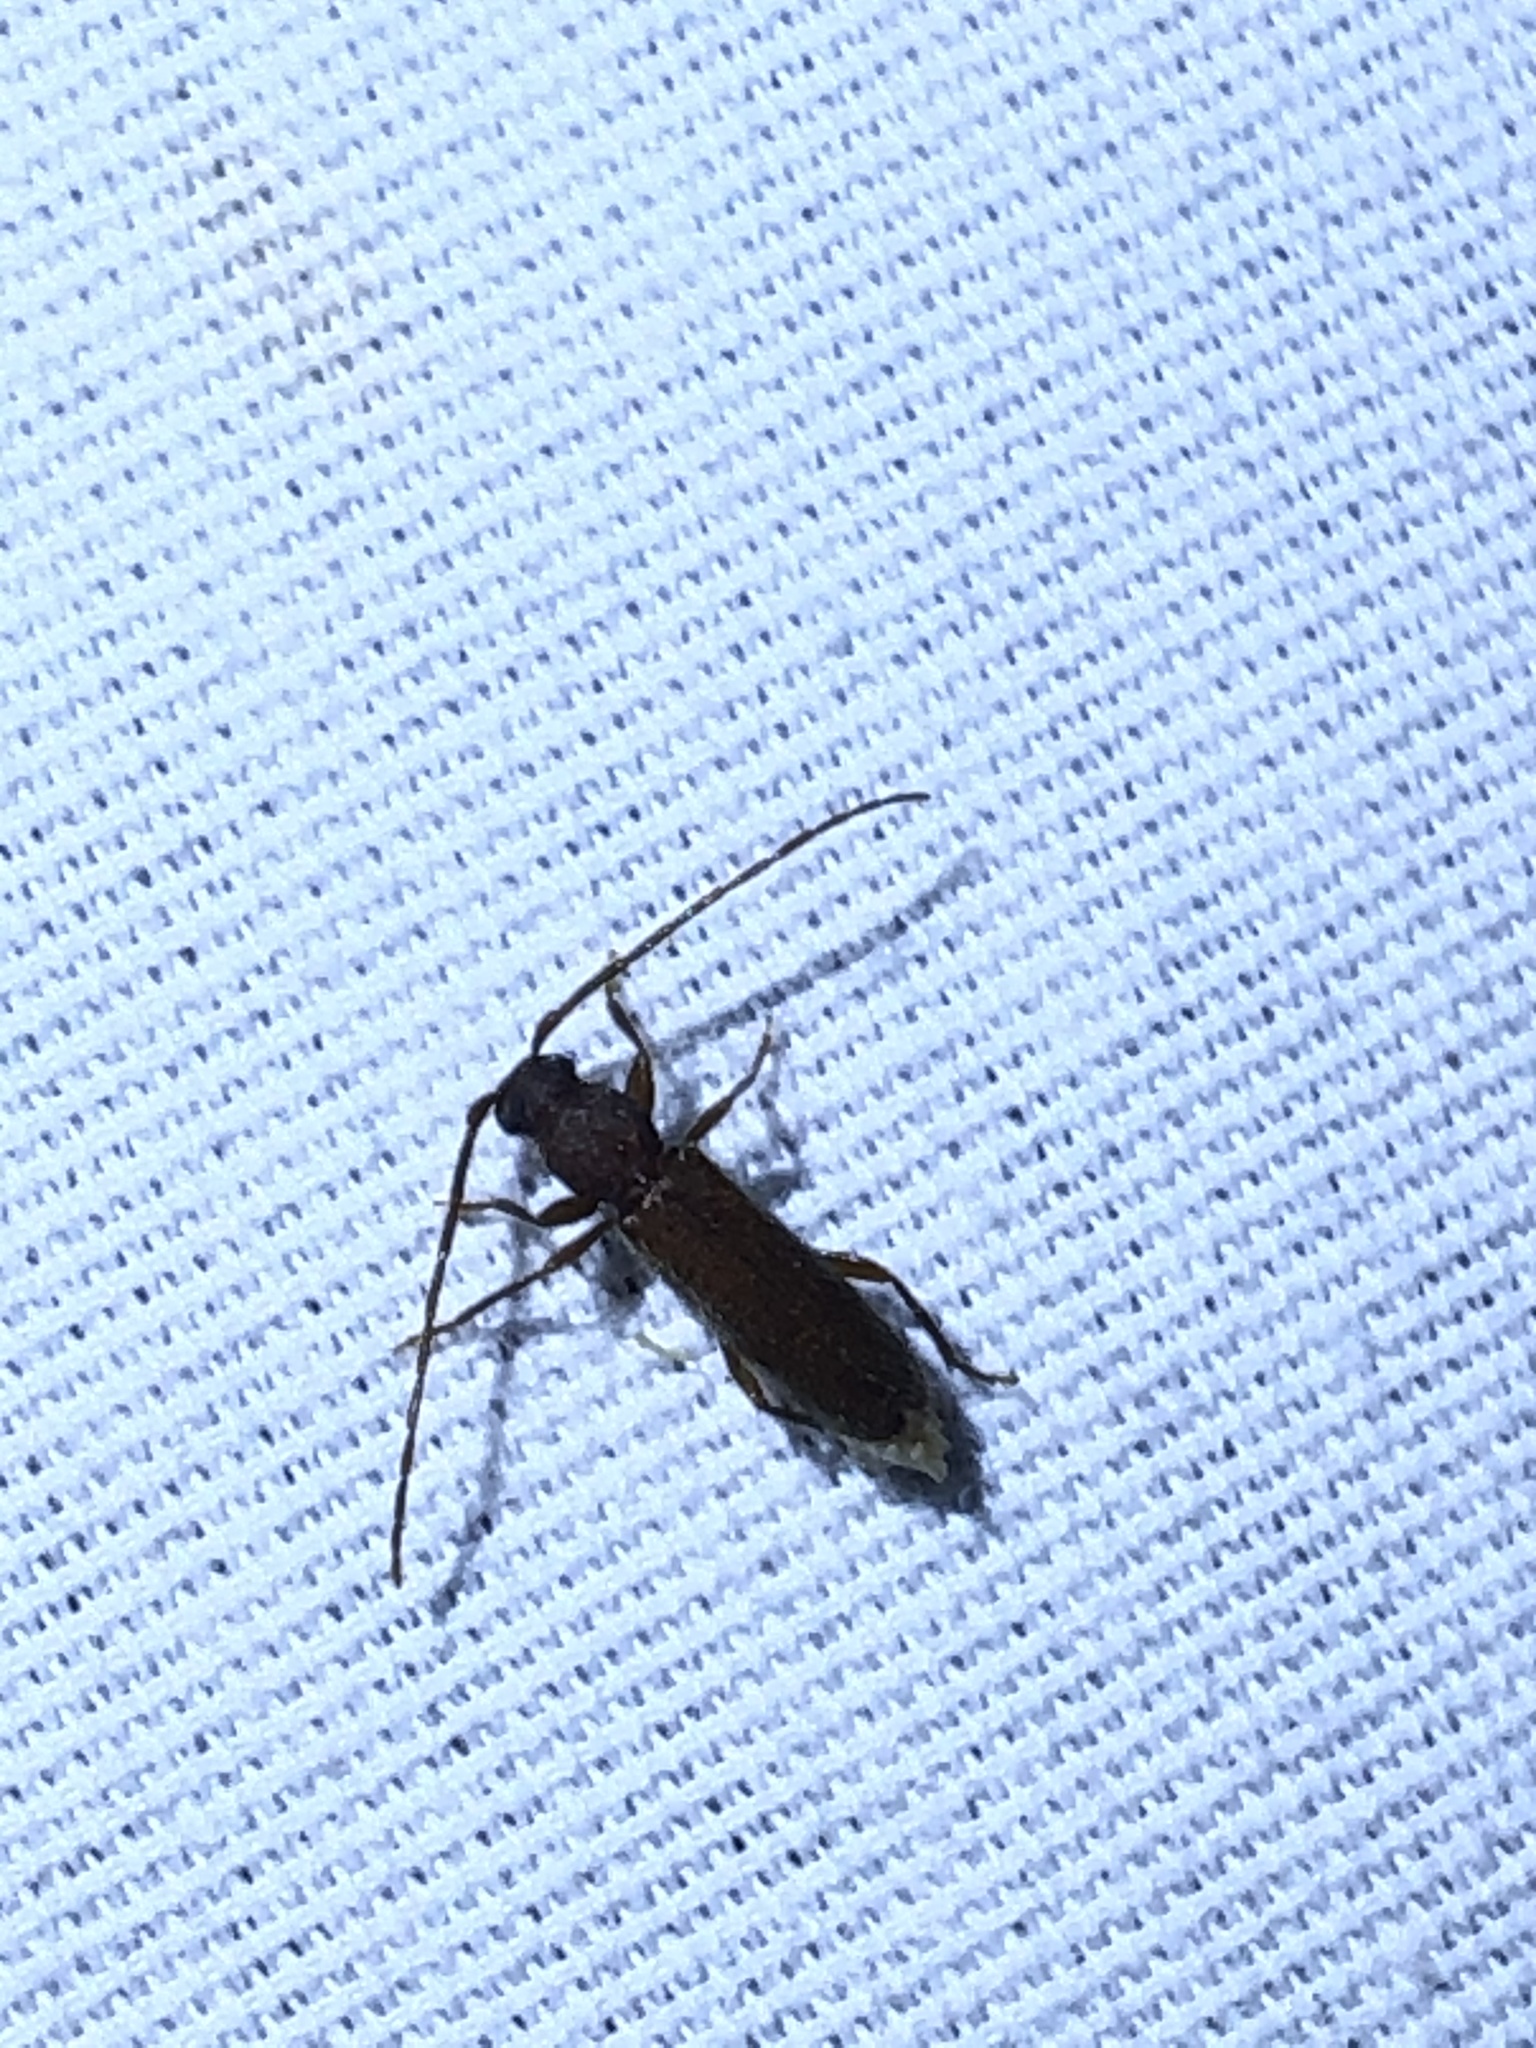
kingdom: Animalia
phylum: Arthropoda
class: Insecta
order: Coleoptera
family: Cerambycidae
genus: Geropa
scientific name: Geropa concolor
